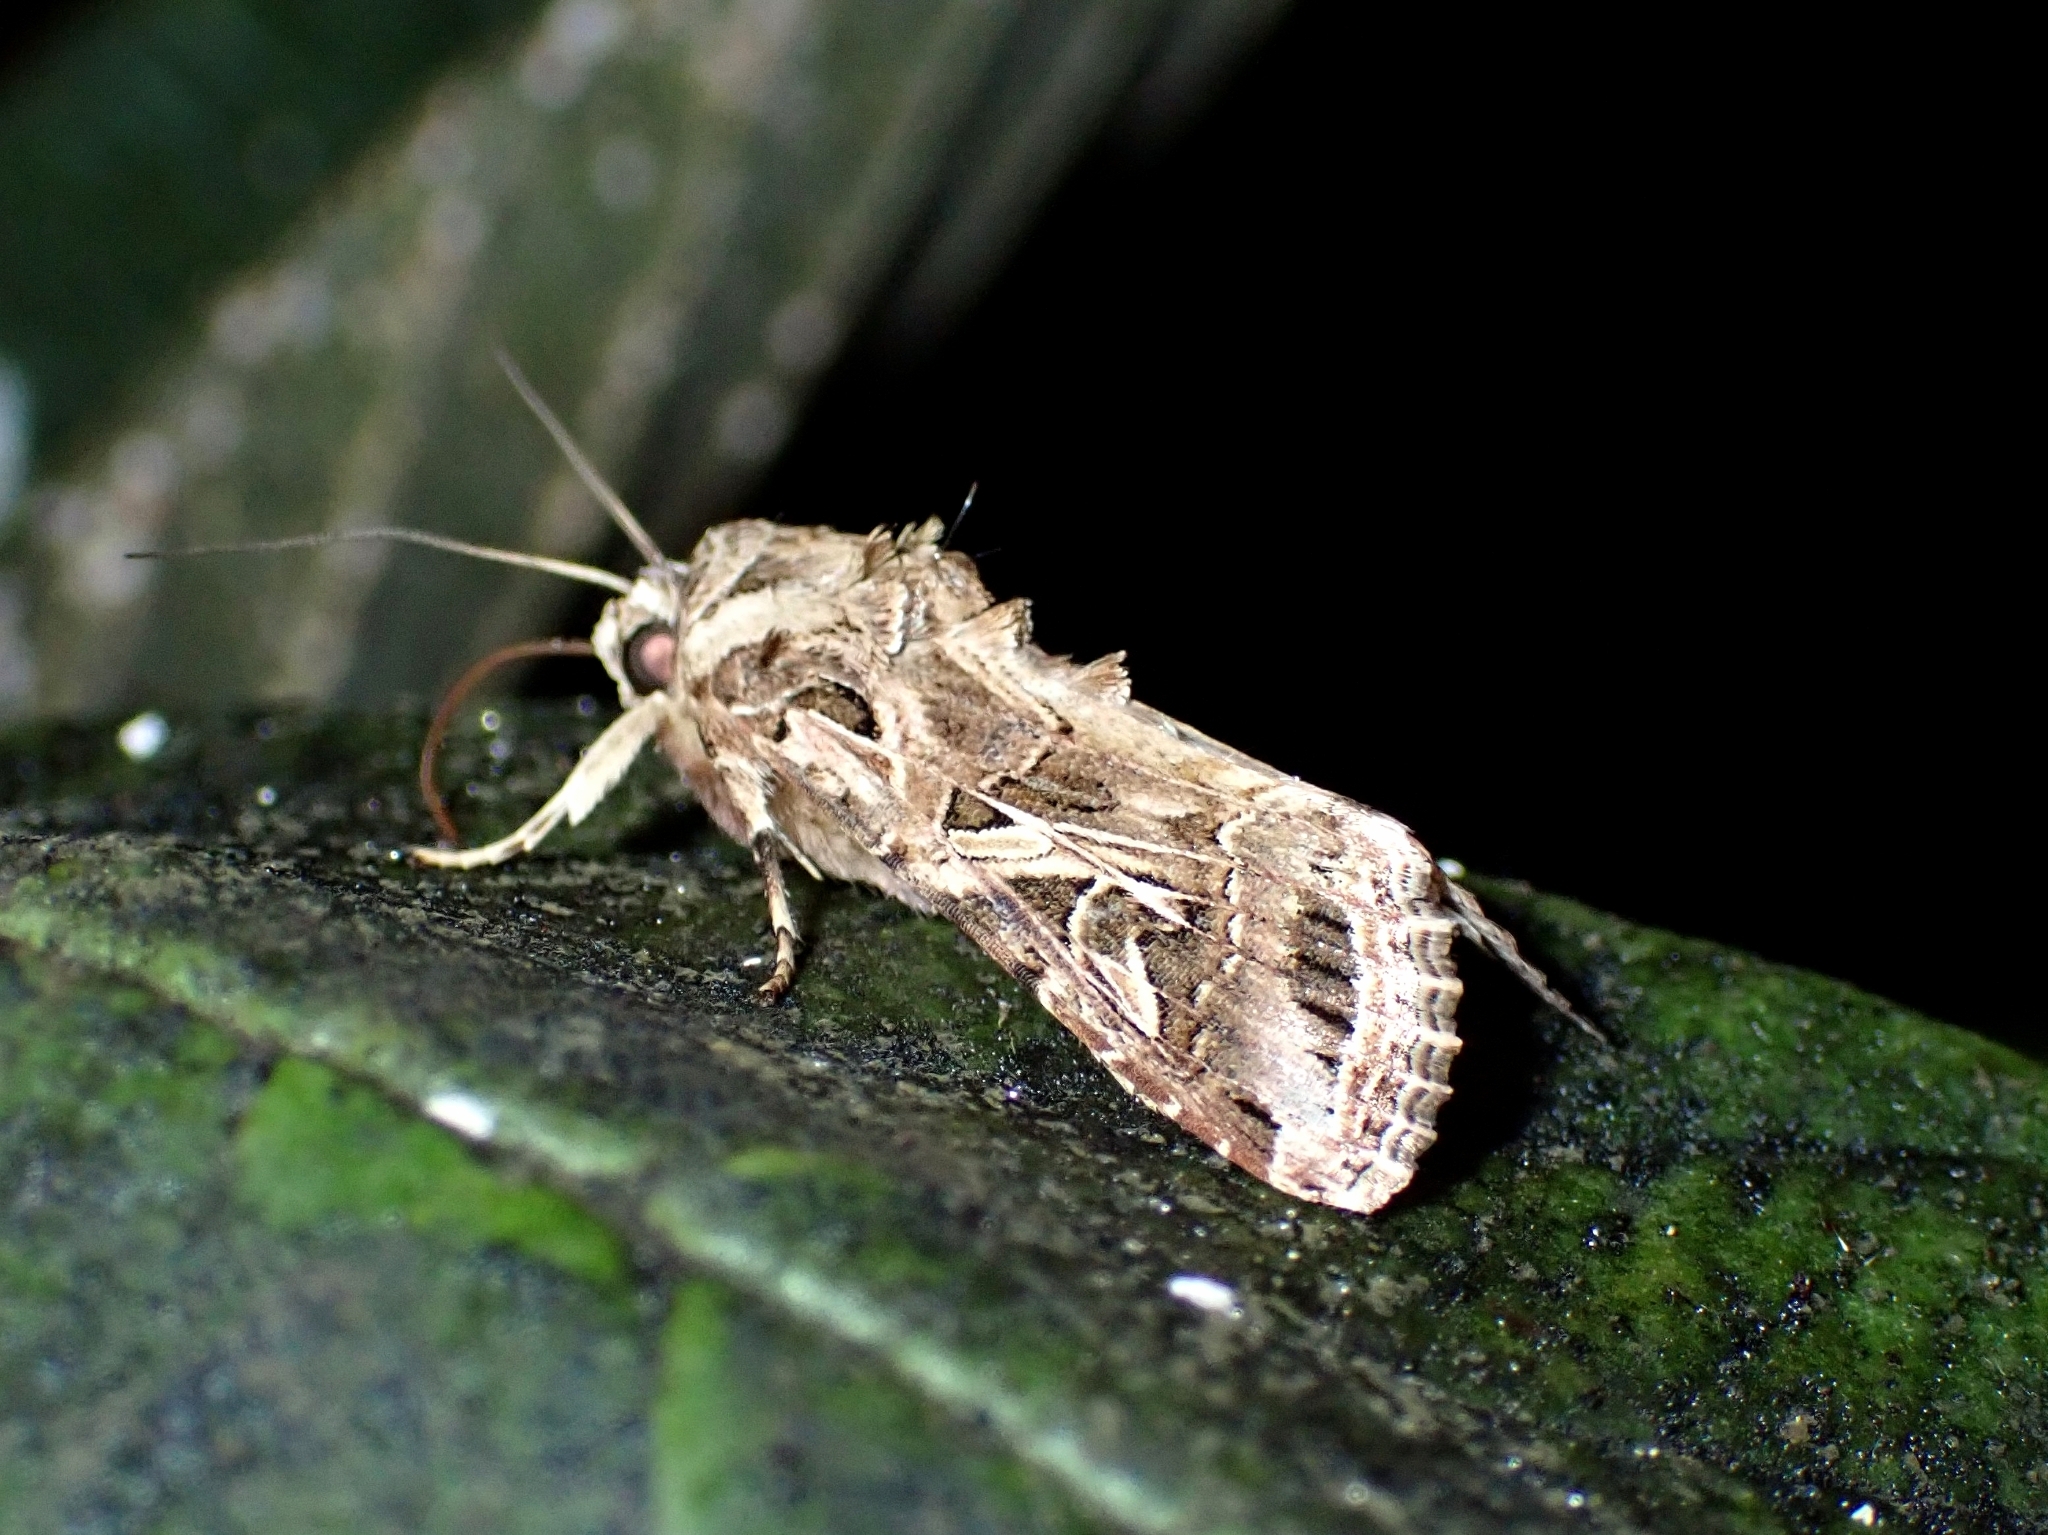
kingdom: Animalia
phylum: Arthropoda
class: Insecta
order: Lepidoptera
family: Noctuidae
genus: Spodoptera
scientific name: Spodoptera littoralis
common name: Egyptian cotton leafworm
